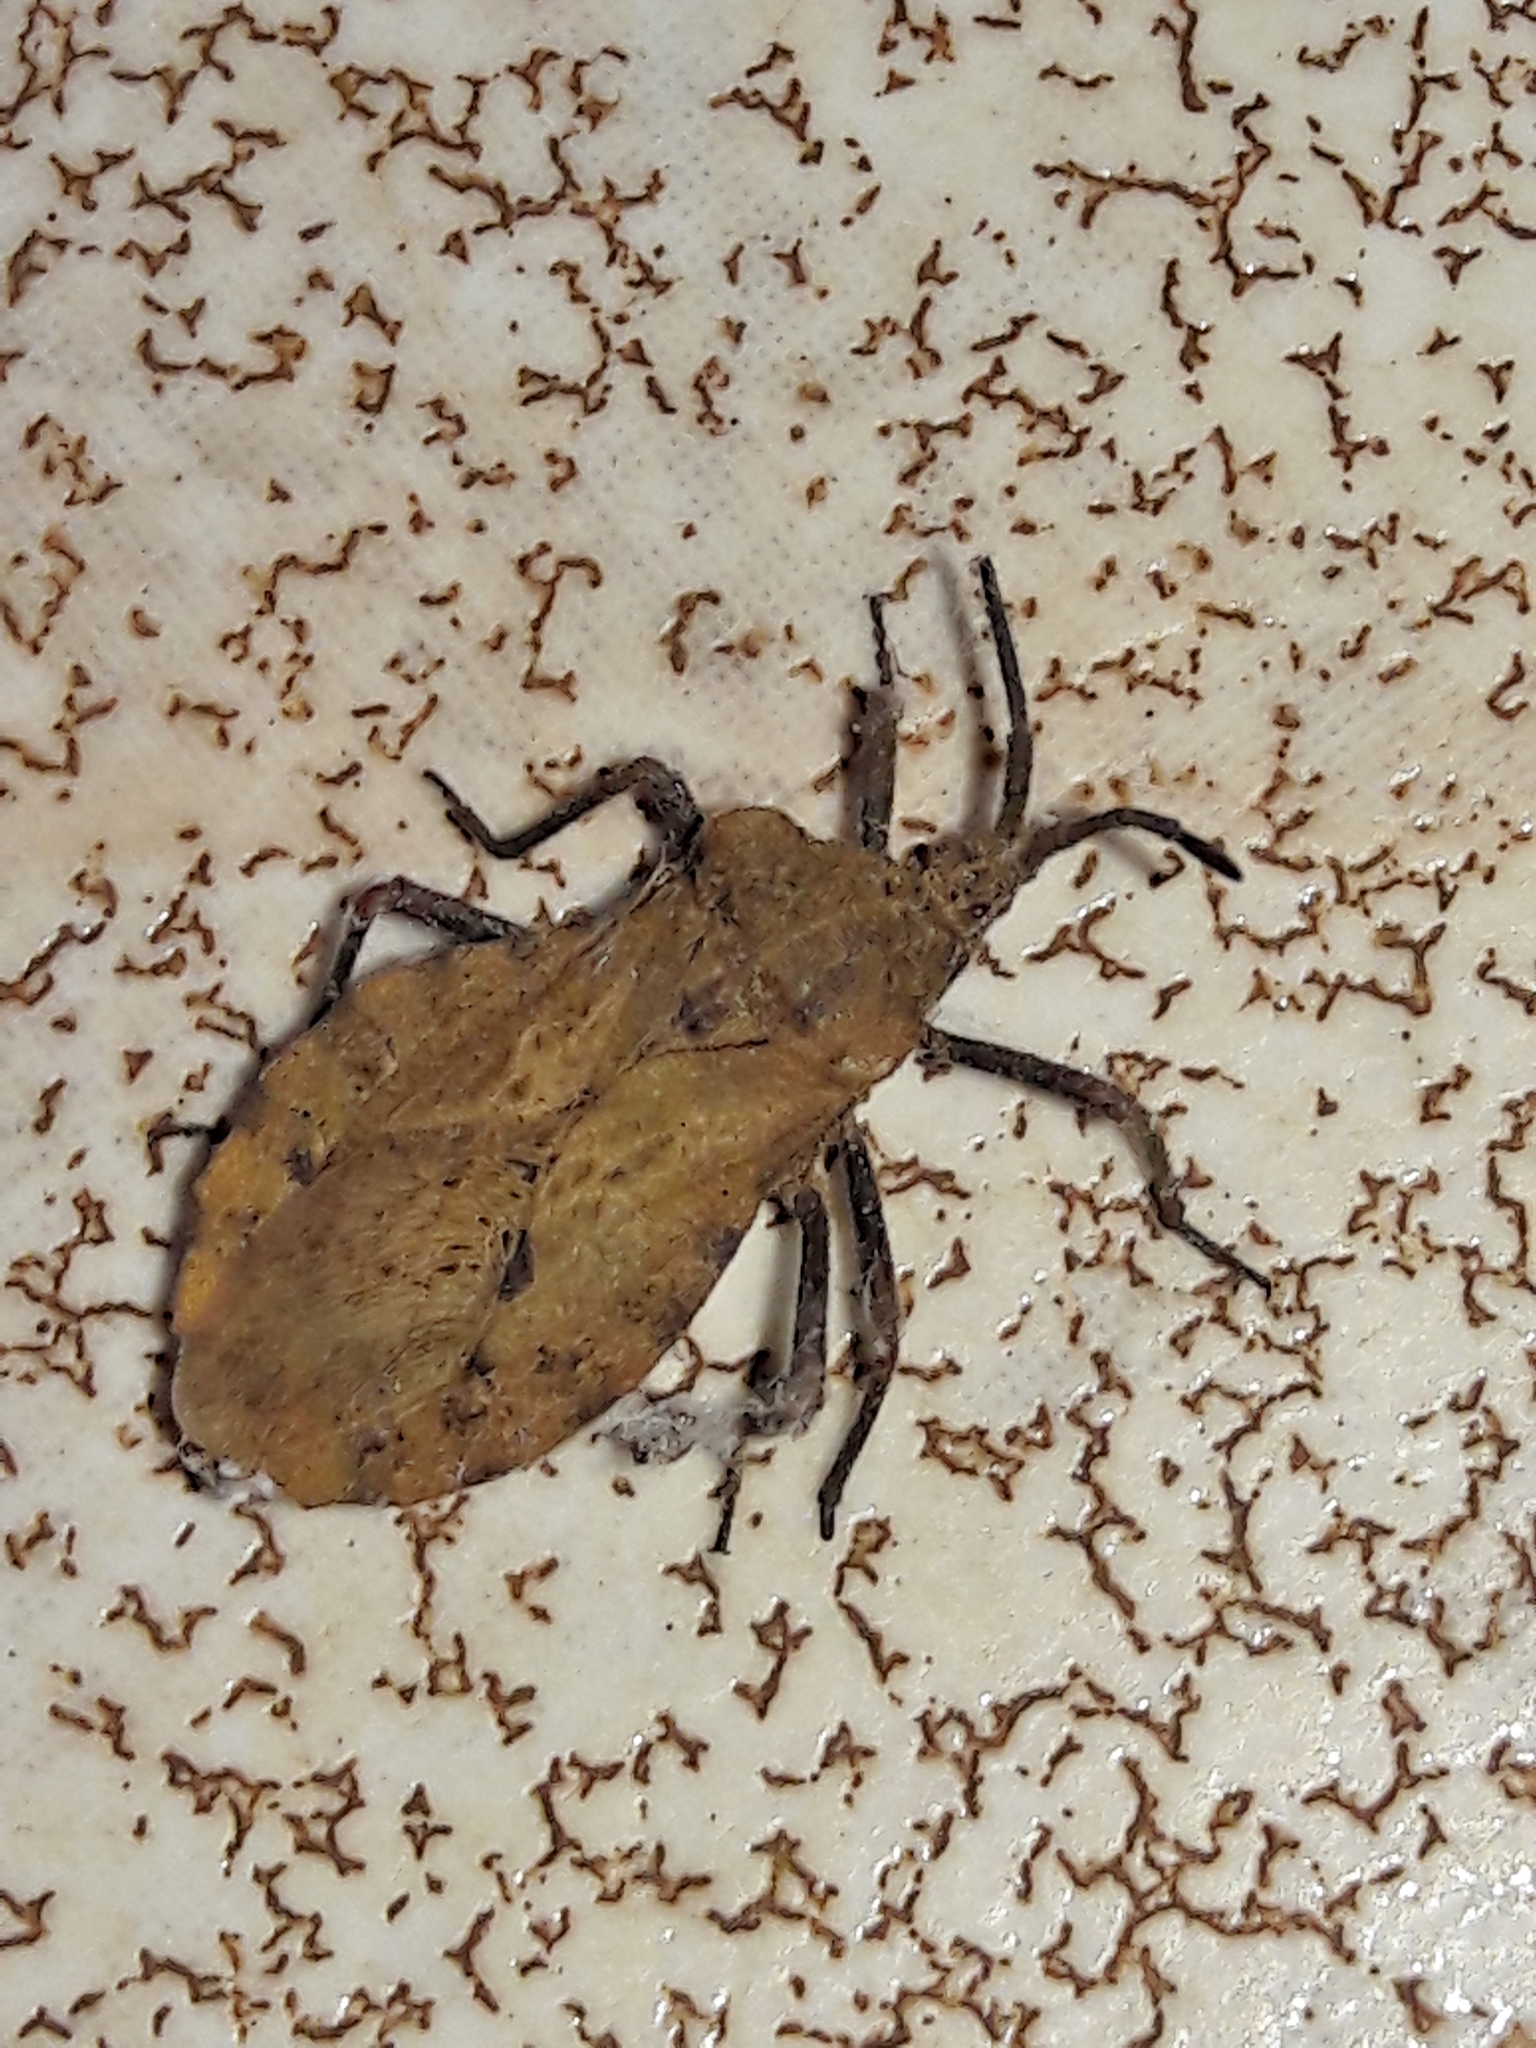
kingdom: Animalia
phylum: Arthropoda
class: Insecta
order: Hemiptera
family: Coreidae
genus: Spartocera
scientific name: Spartocera fusca
